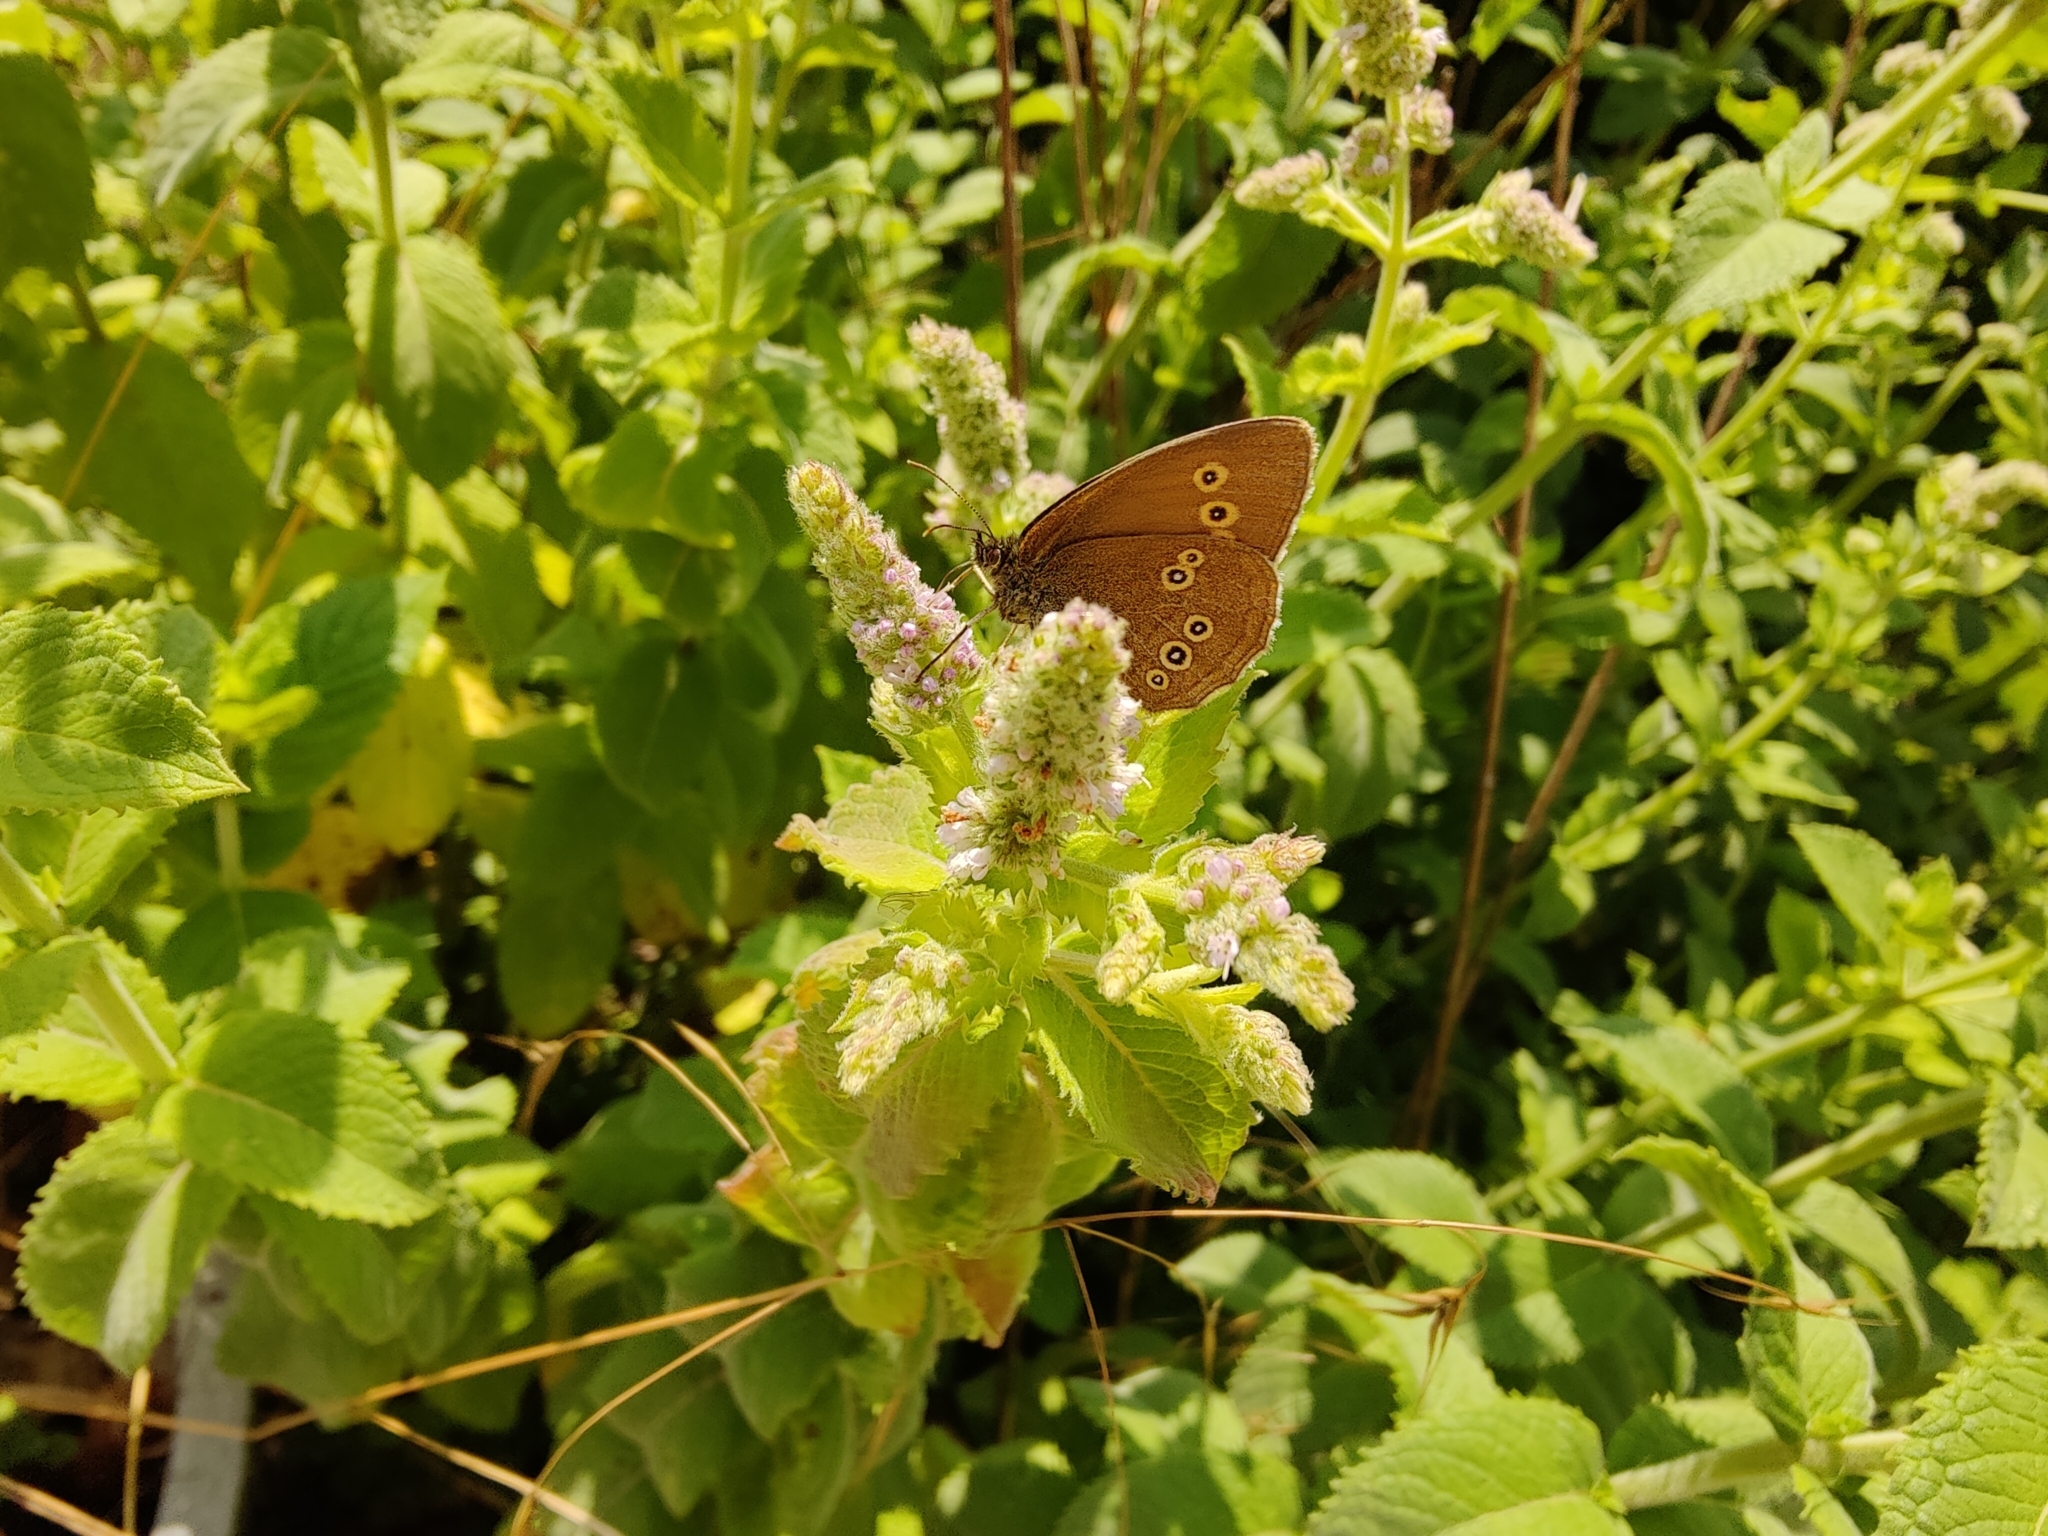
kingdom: Animalia
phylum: Arthropoda
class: Insecta
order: Lepidoptera
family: Nymphalidae
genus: Aphantopus
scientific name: Aphantopus hyperantus
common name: Ringlet
